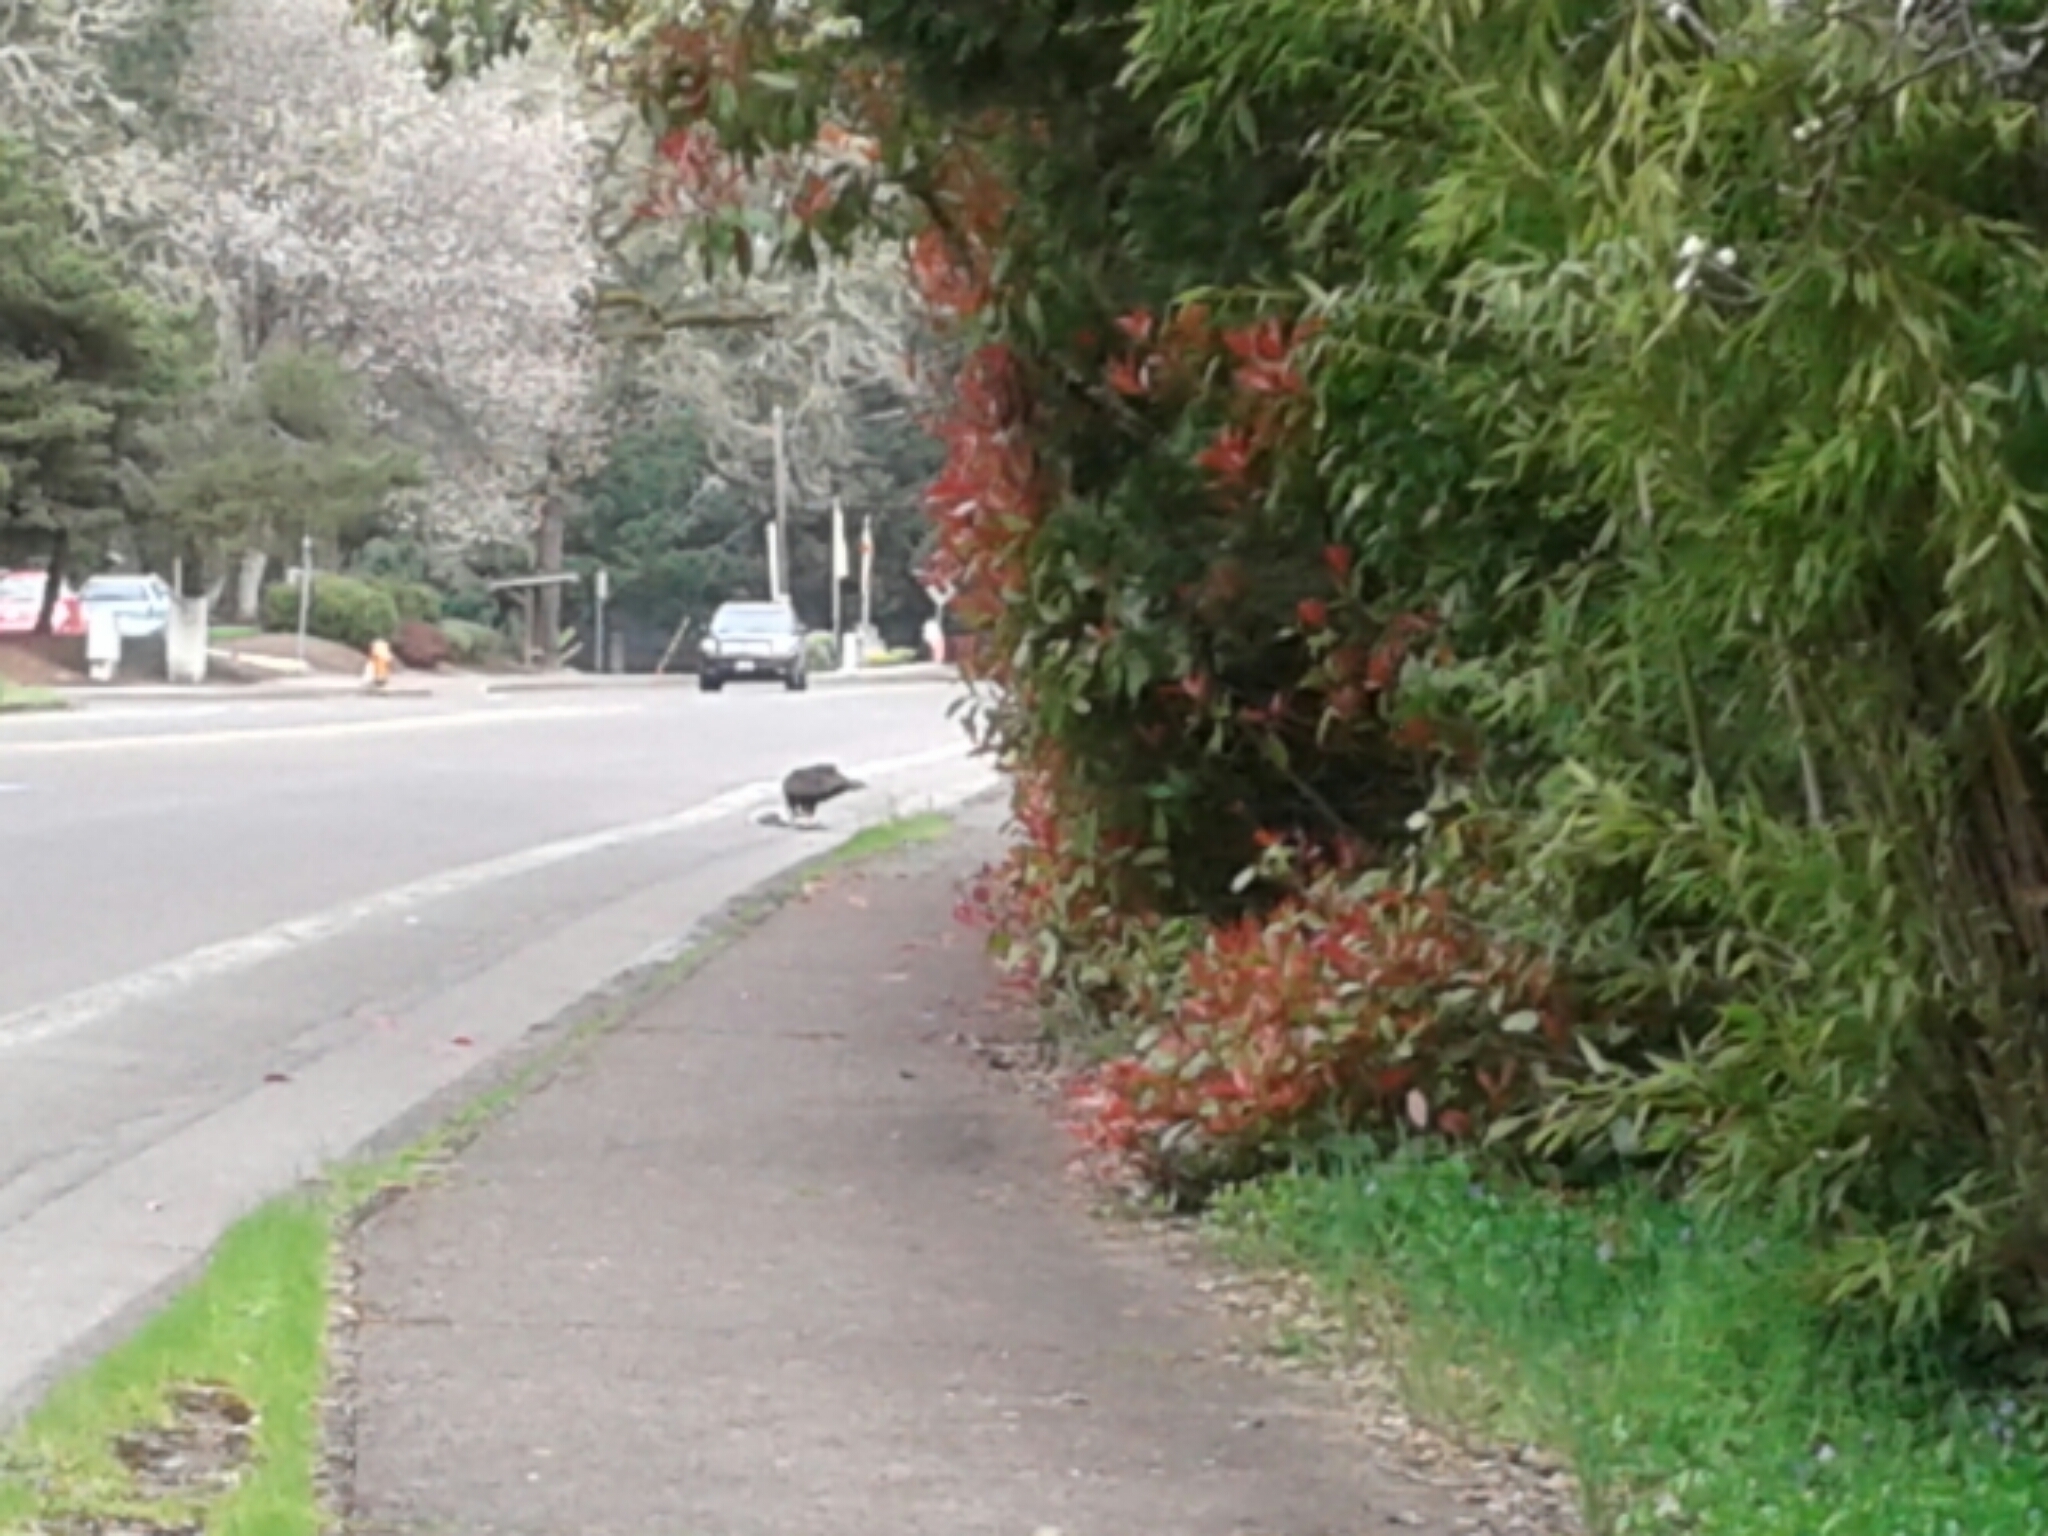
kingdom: Animalia
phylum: Chordata
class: Aves
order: Accipitriformes
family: Cathartidae
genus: Cathartes
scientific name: Cathartes aura
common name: Turkey vulture
